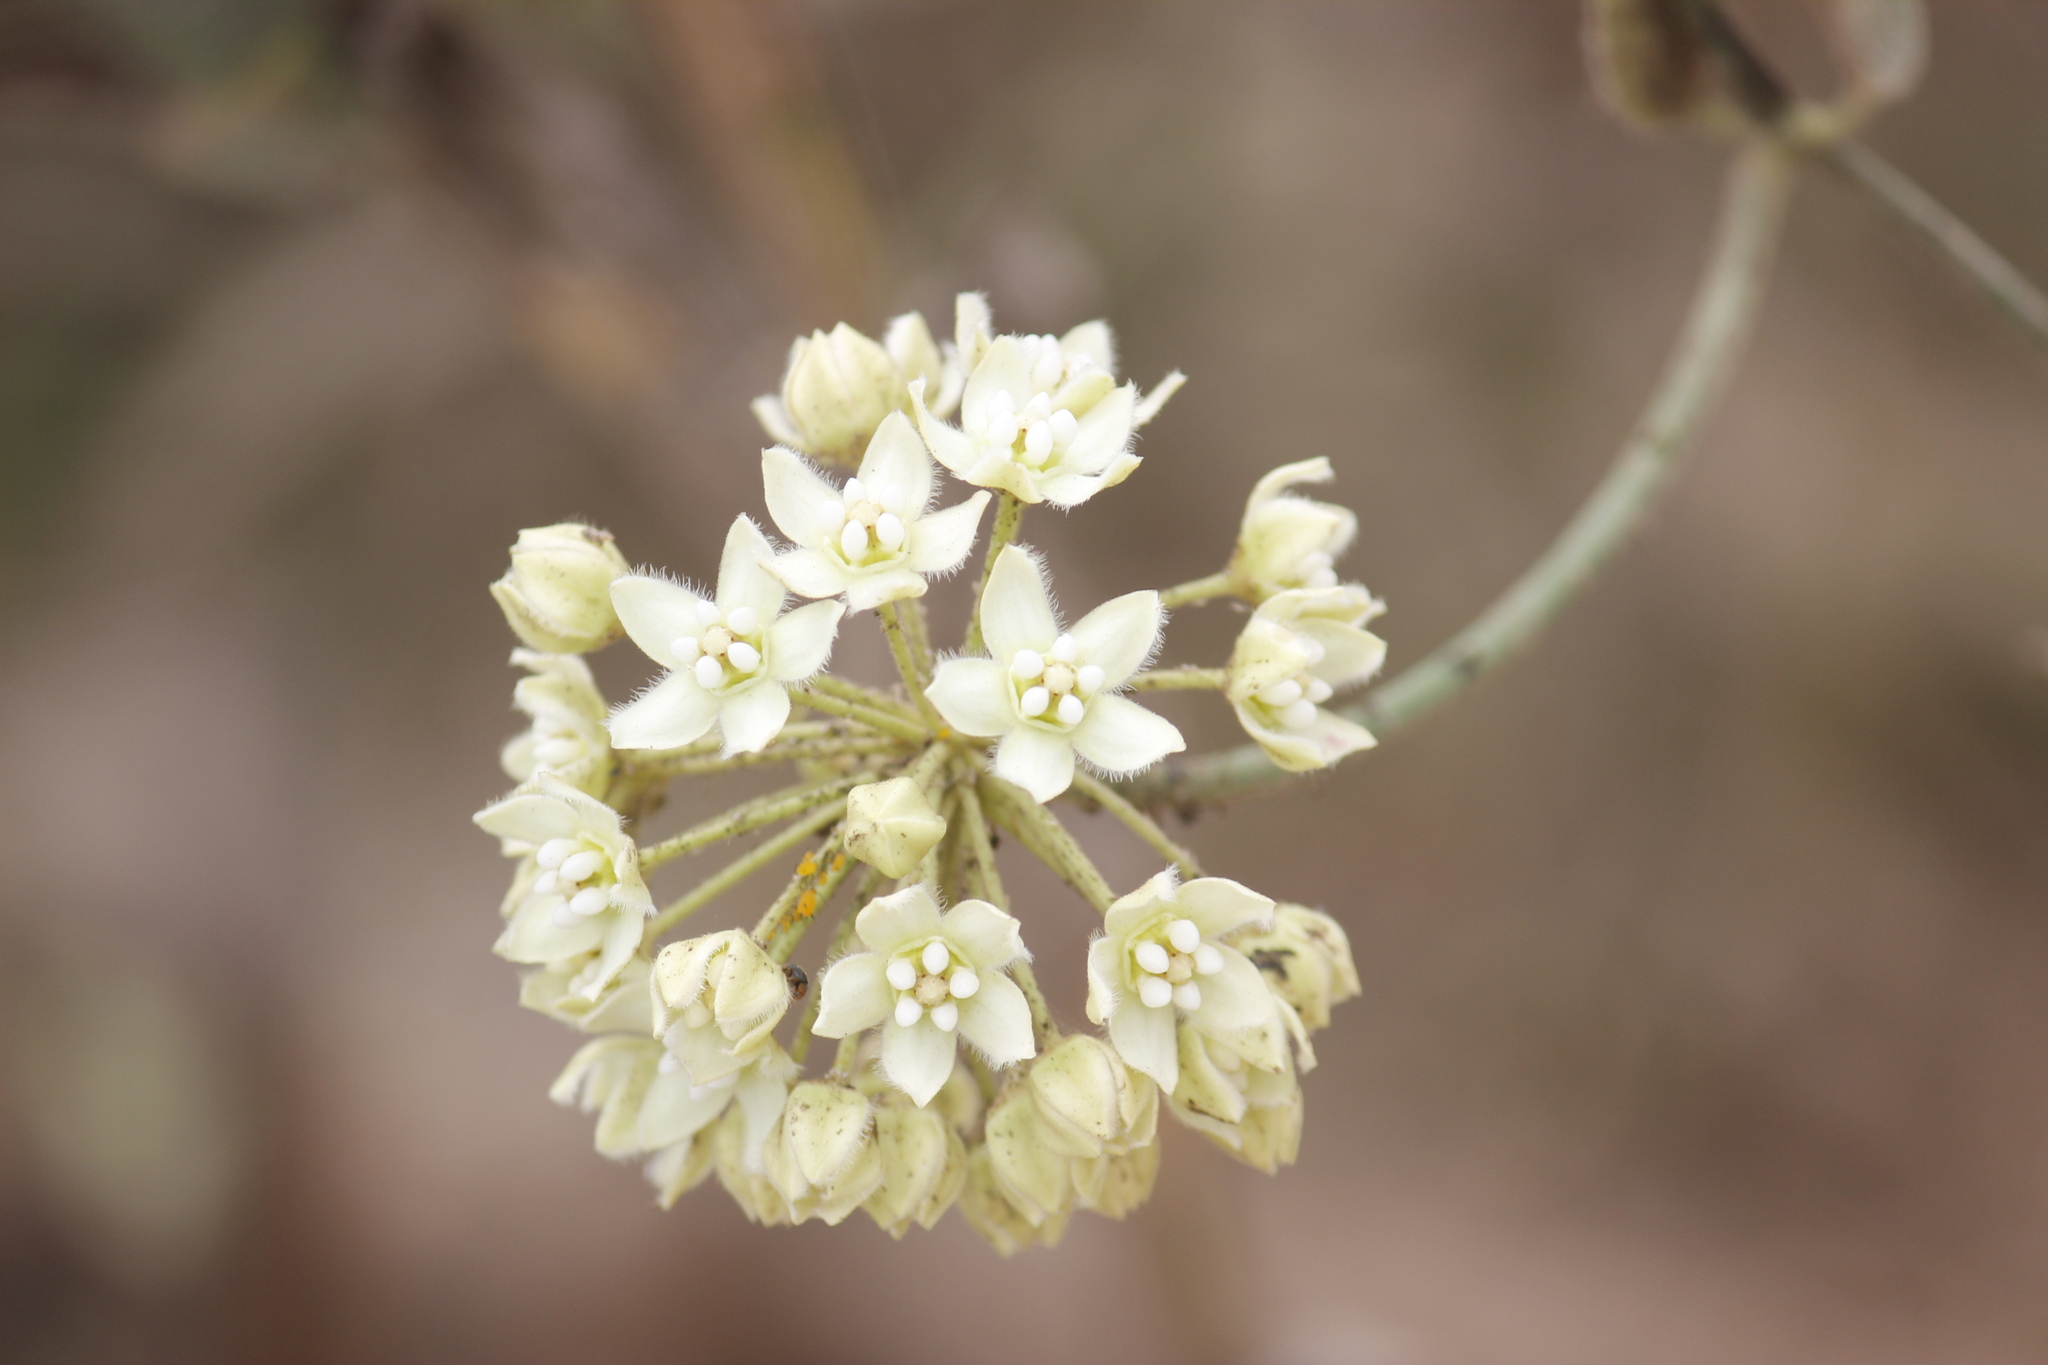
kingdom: Plantae
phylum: Tracheophyta
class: Magnoliopsida
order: Gentianales
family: Apocynaceae
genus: Funastrum
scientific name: Funastrum clausum
